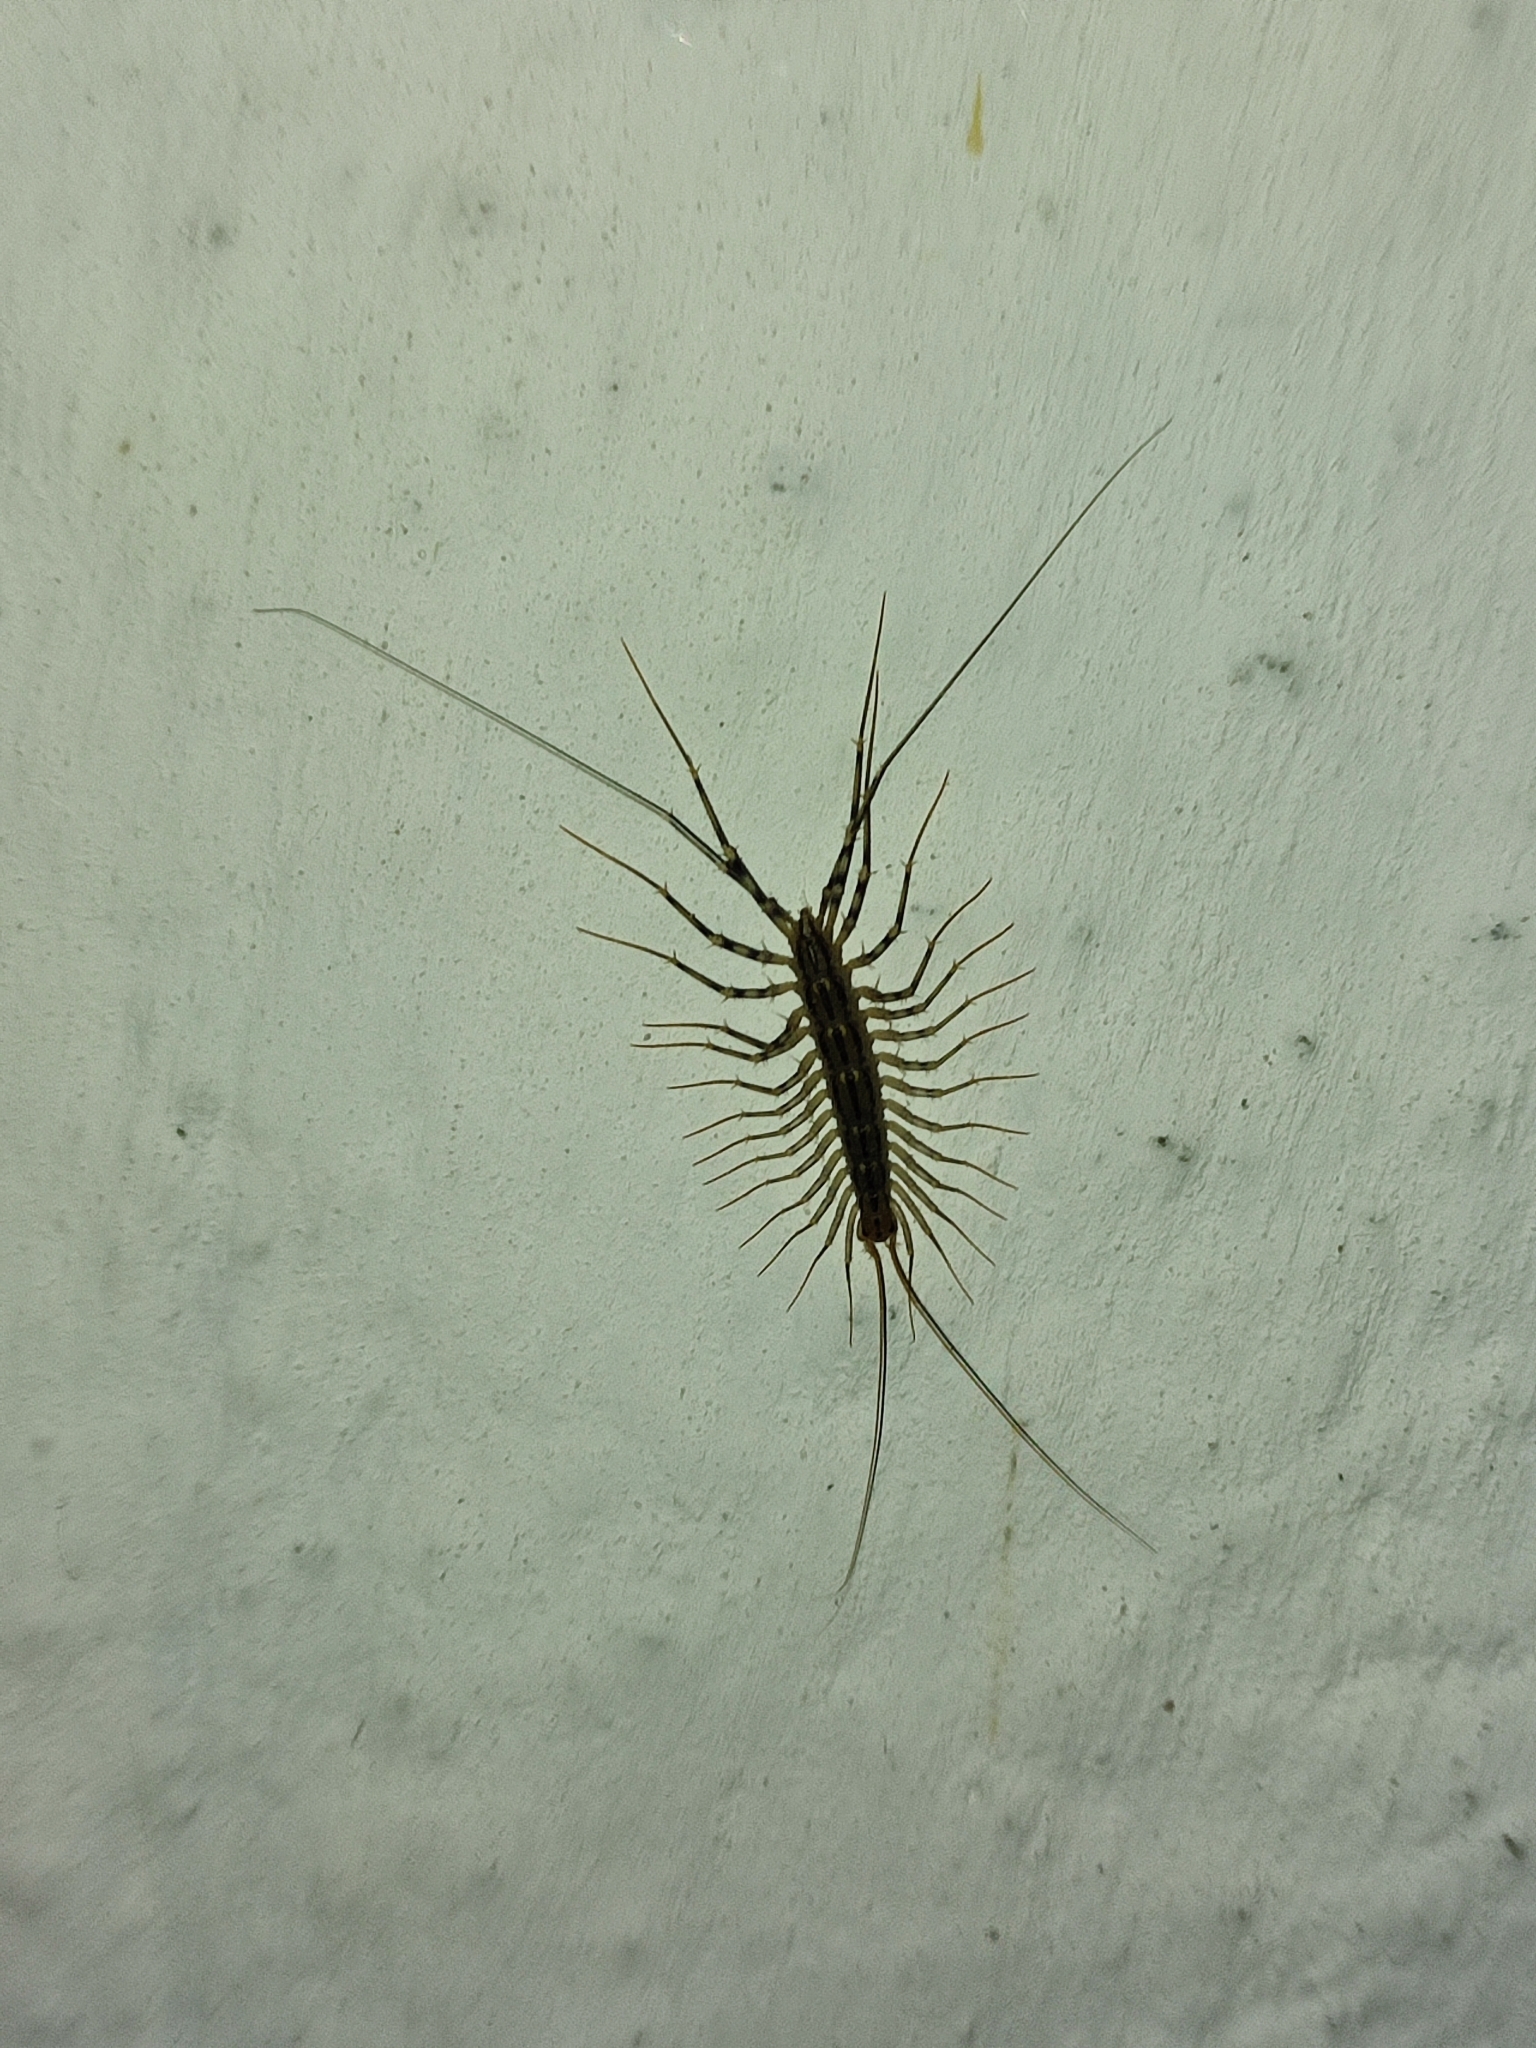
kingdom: Animalia
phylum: Arthropoda
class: Chilopoda
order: Scutigeromorpha
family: Scutigeridae
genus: Scutigera
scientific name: Scutigera coleoptrata
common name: House centipede
